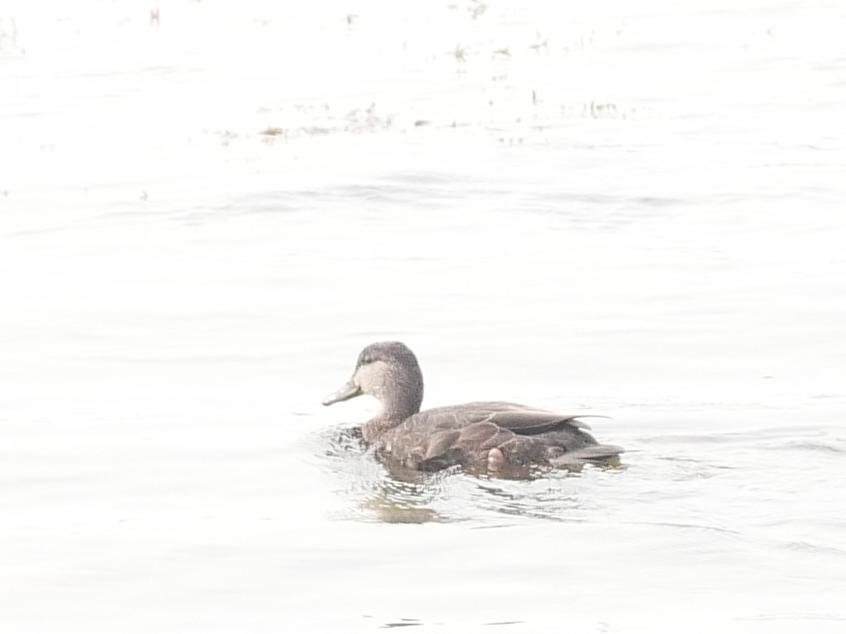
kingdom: Animalia
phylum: Chordata
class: Aves
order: Anseriformes
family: Anatidae
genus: Anas
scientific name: Anas rubripes
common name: American black duck
